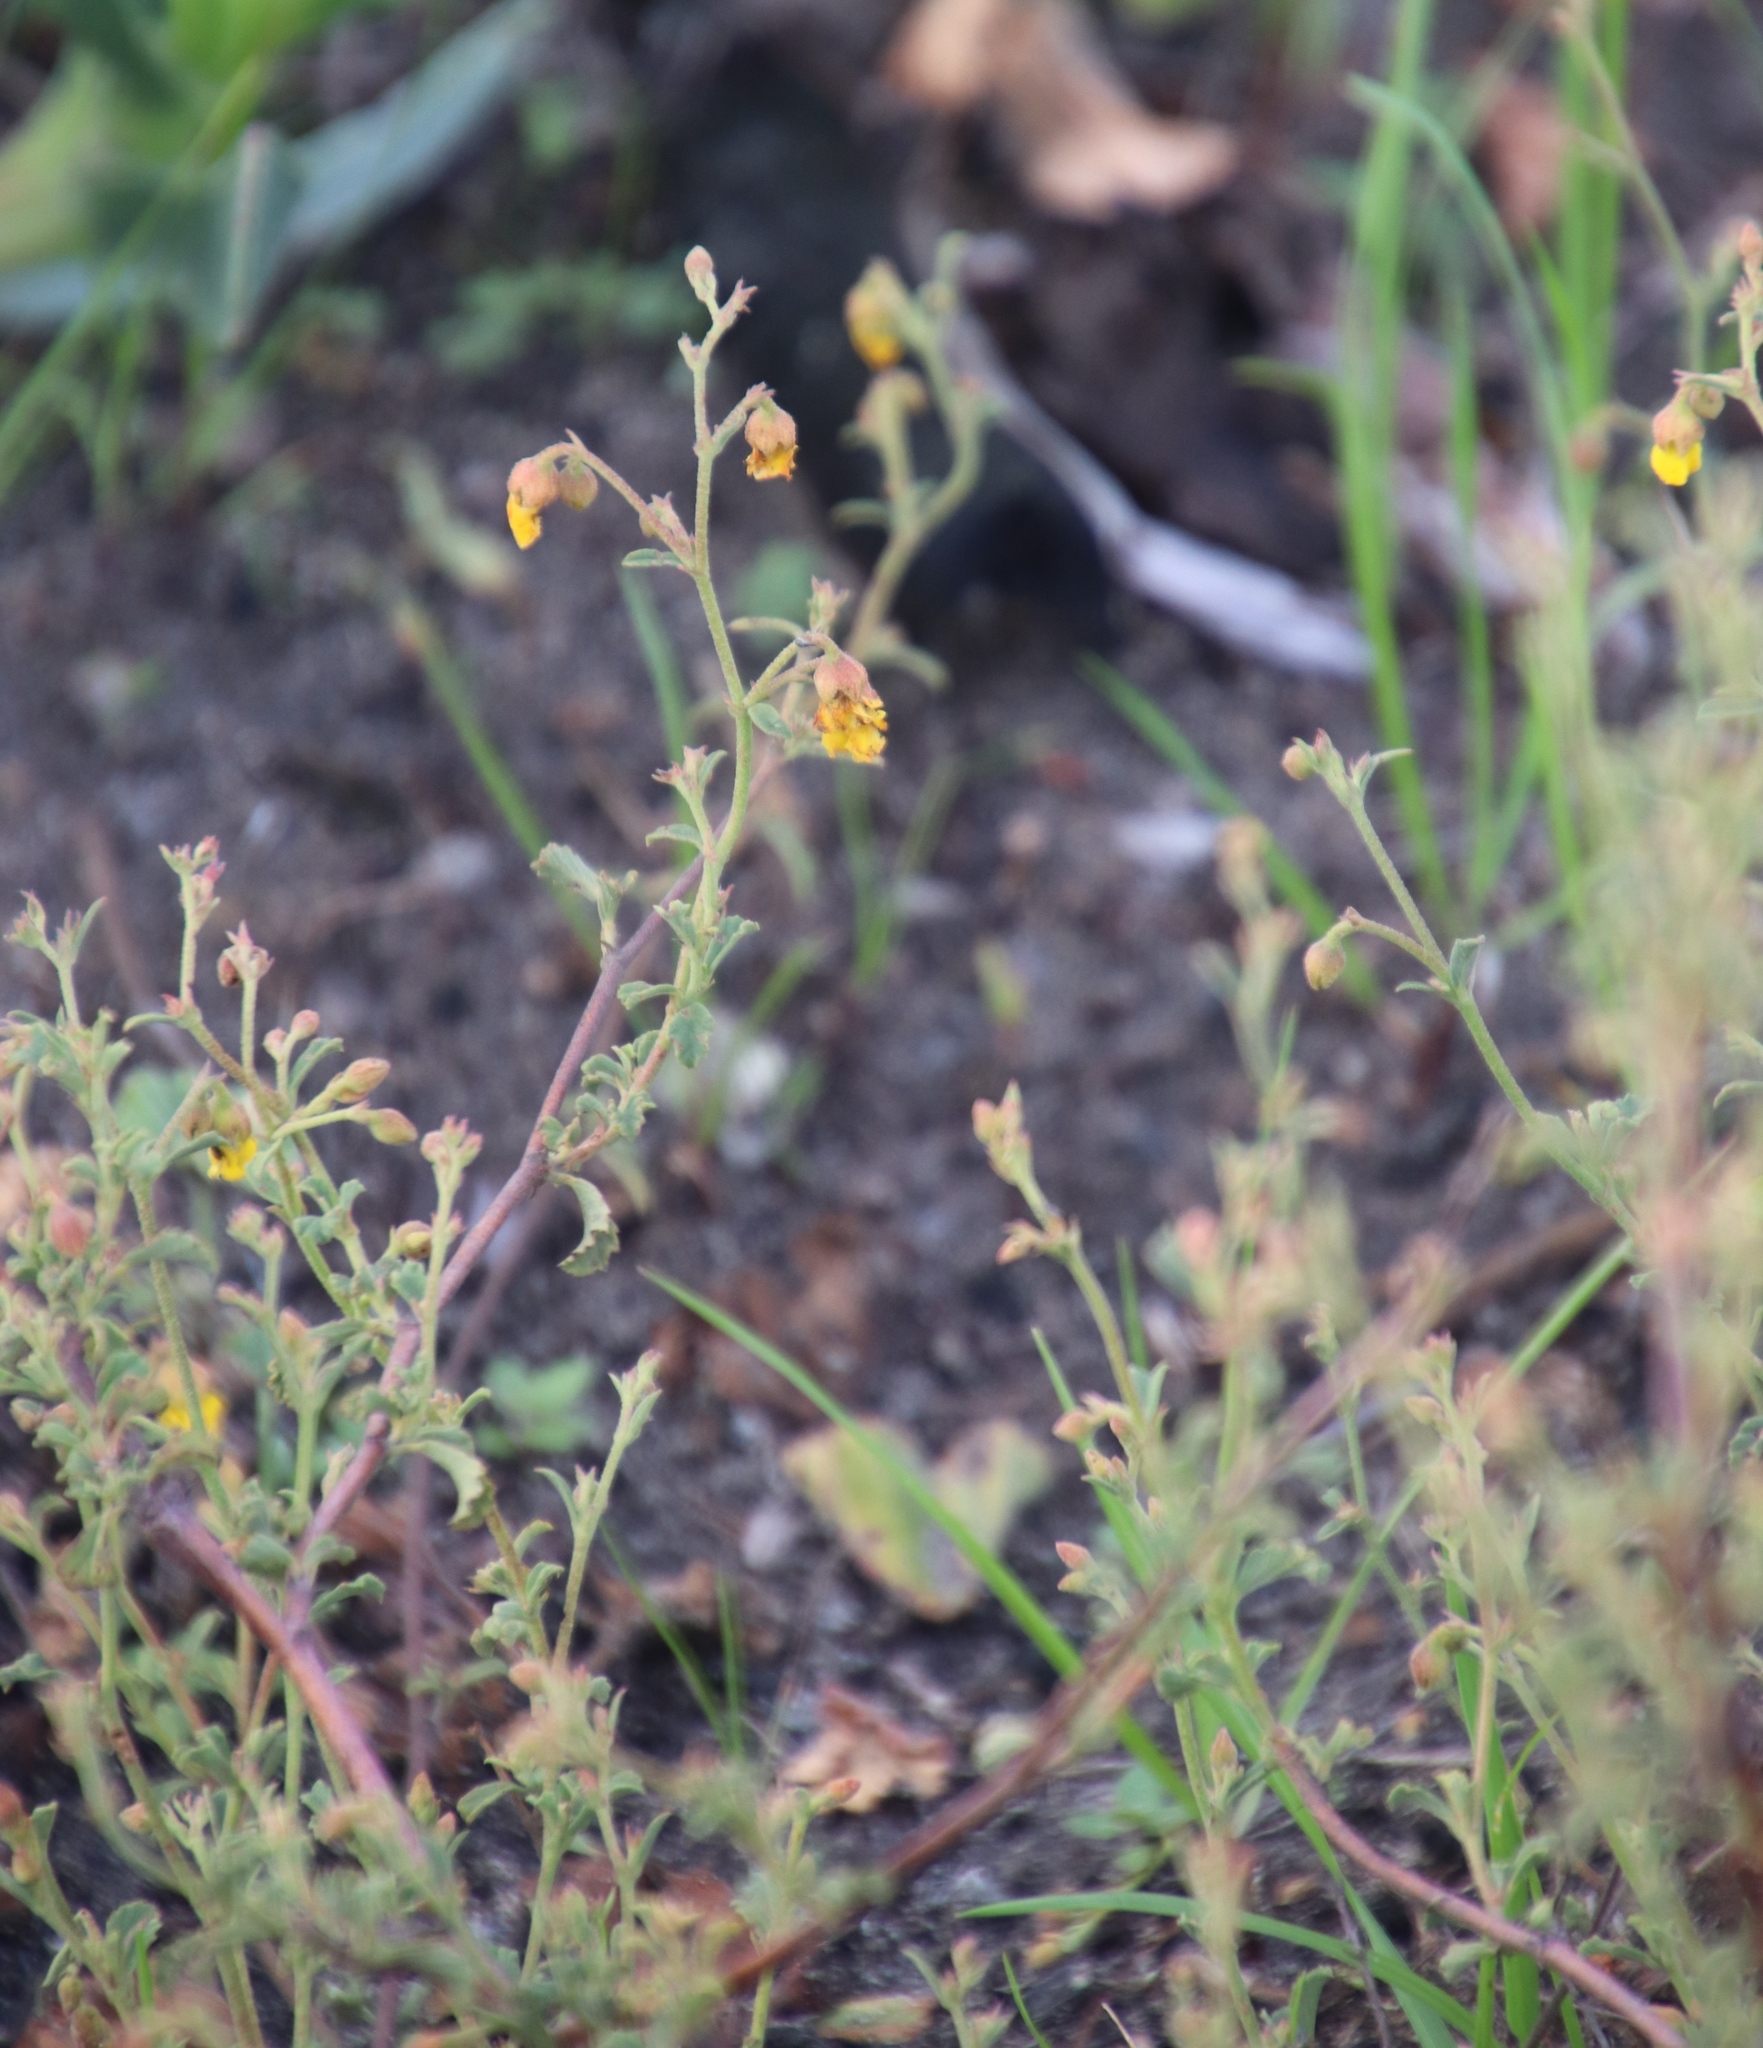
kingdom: Plantae
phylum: Tracheophyta
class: Magnoliopsida
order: Malvales
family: Malvaceae
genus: Hermannia
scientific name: Hermannia multiflora
